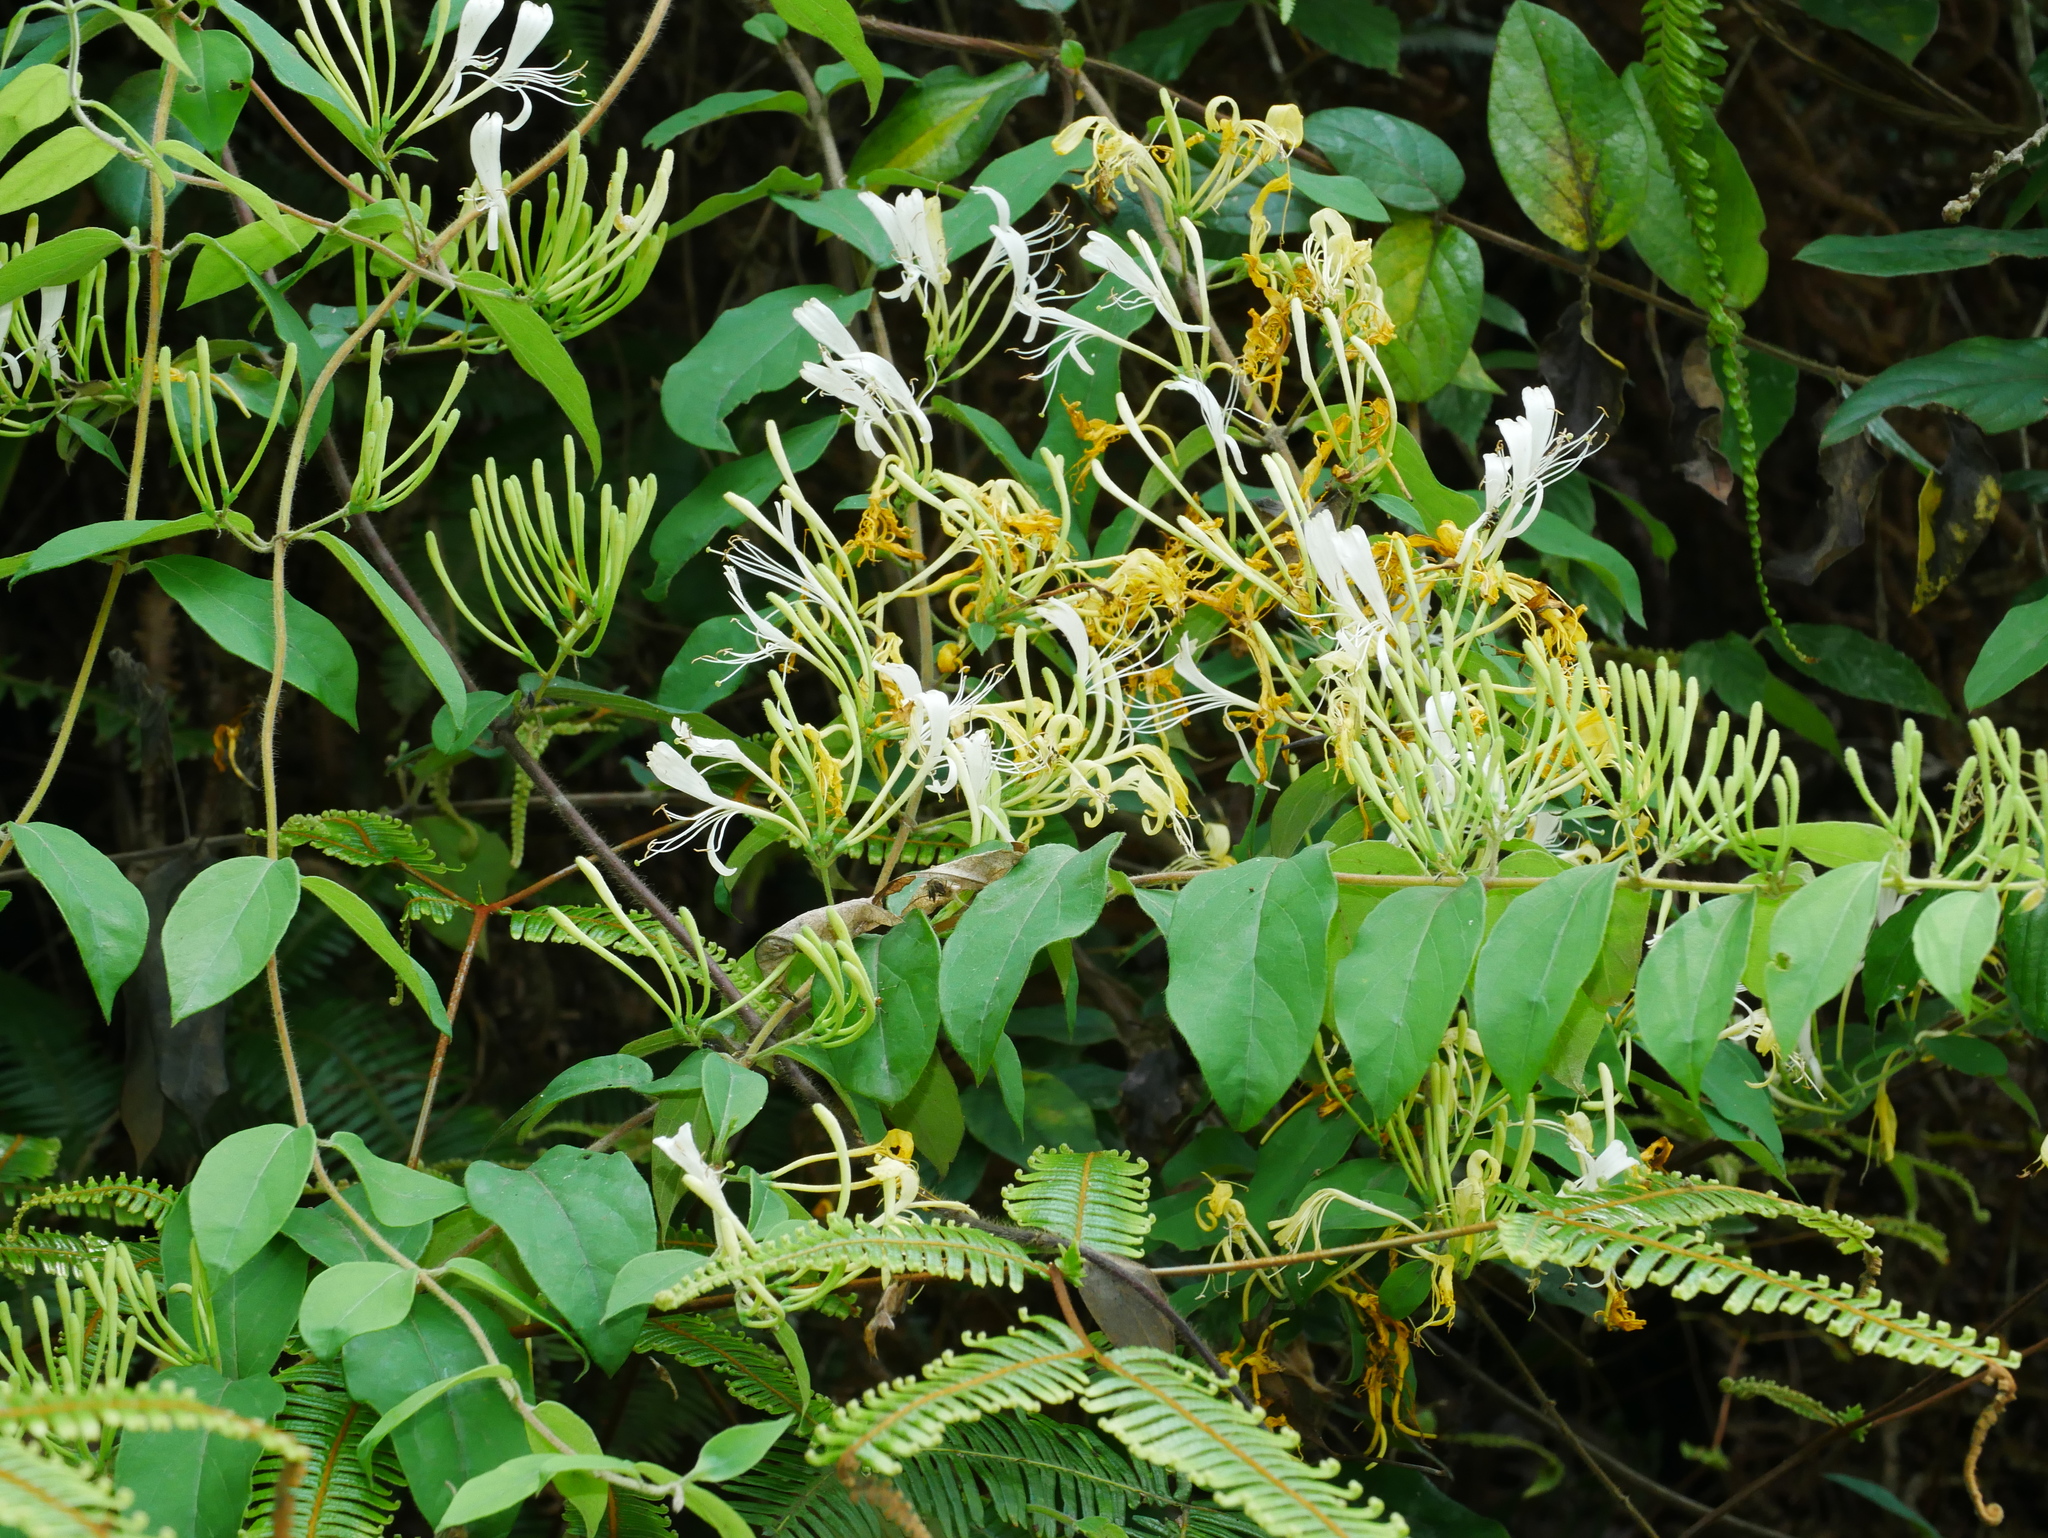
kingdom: Plantae
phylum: Tracheophyta
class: Magnoliopsida
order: Dipsacales
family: Caprifoliaceae
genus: Lonicera
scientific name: Lonicera hypoglauca
